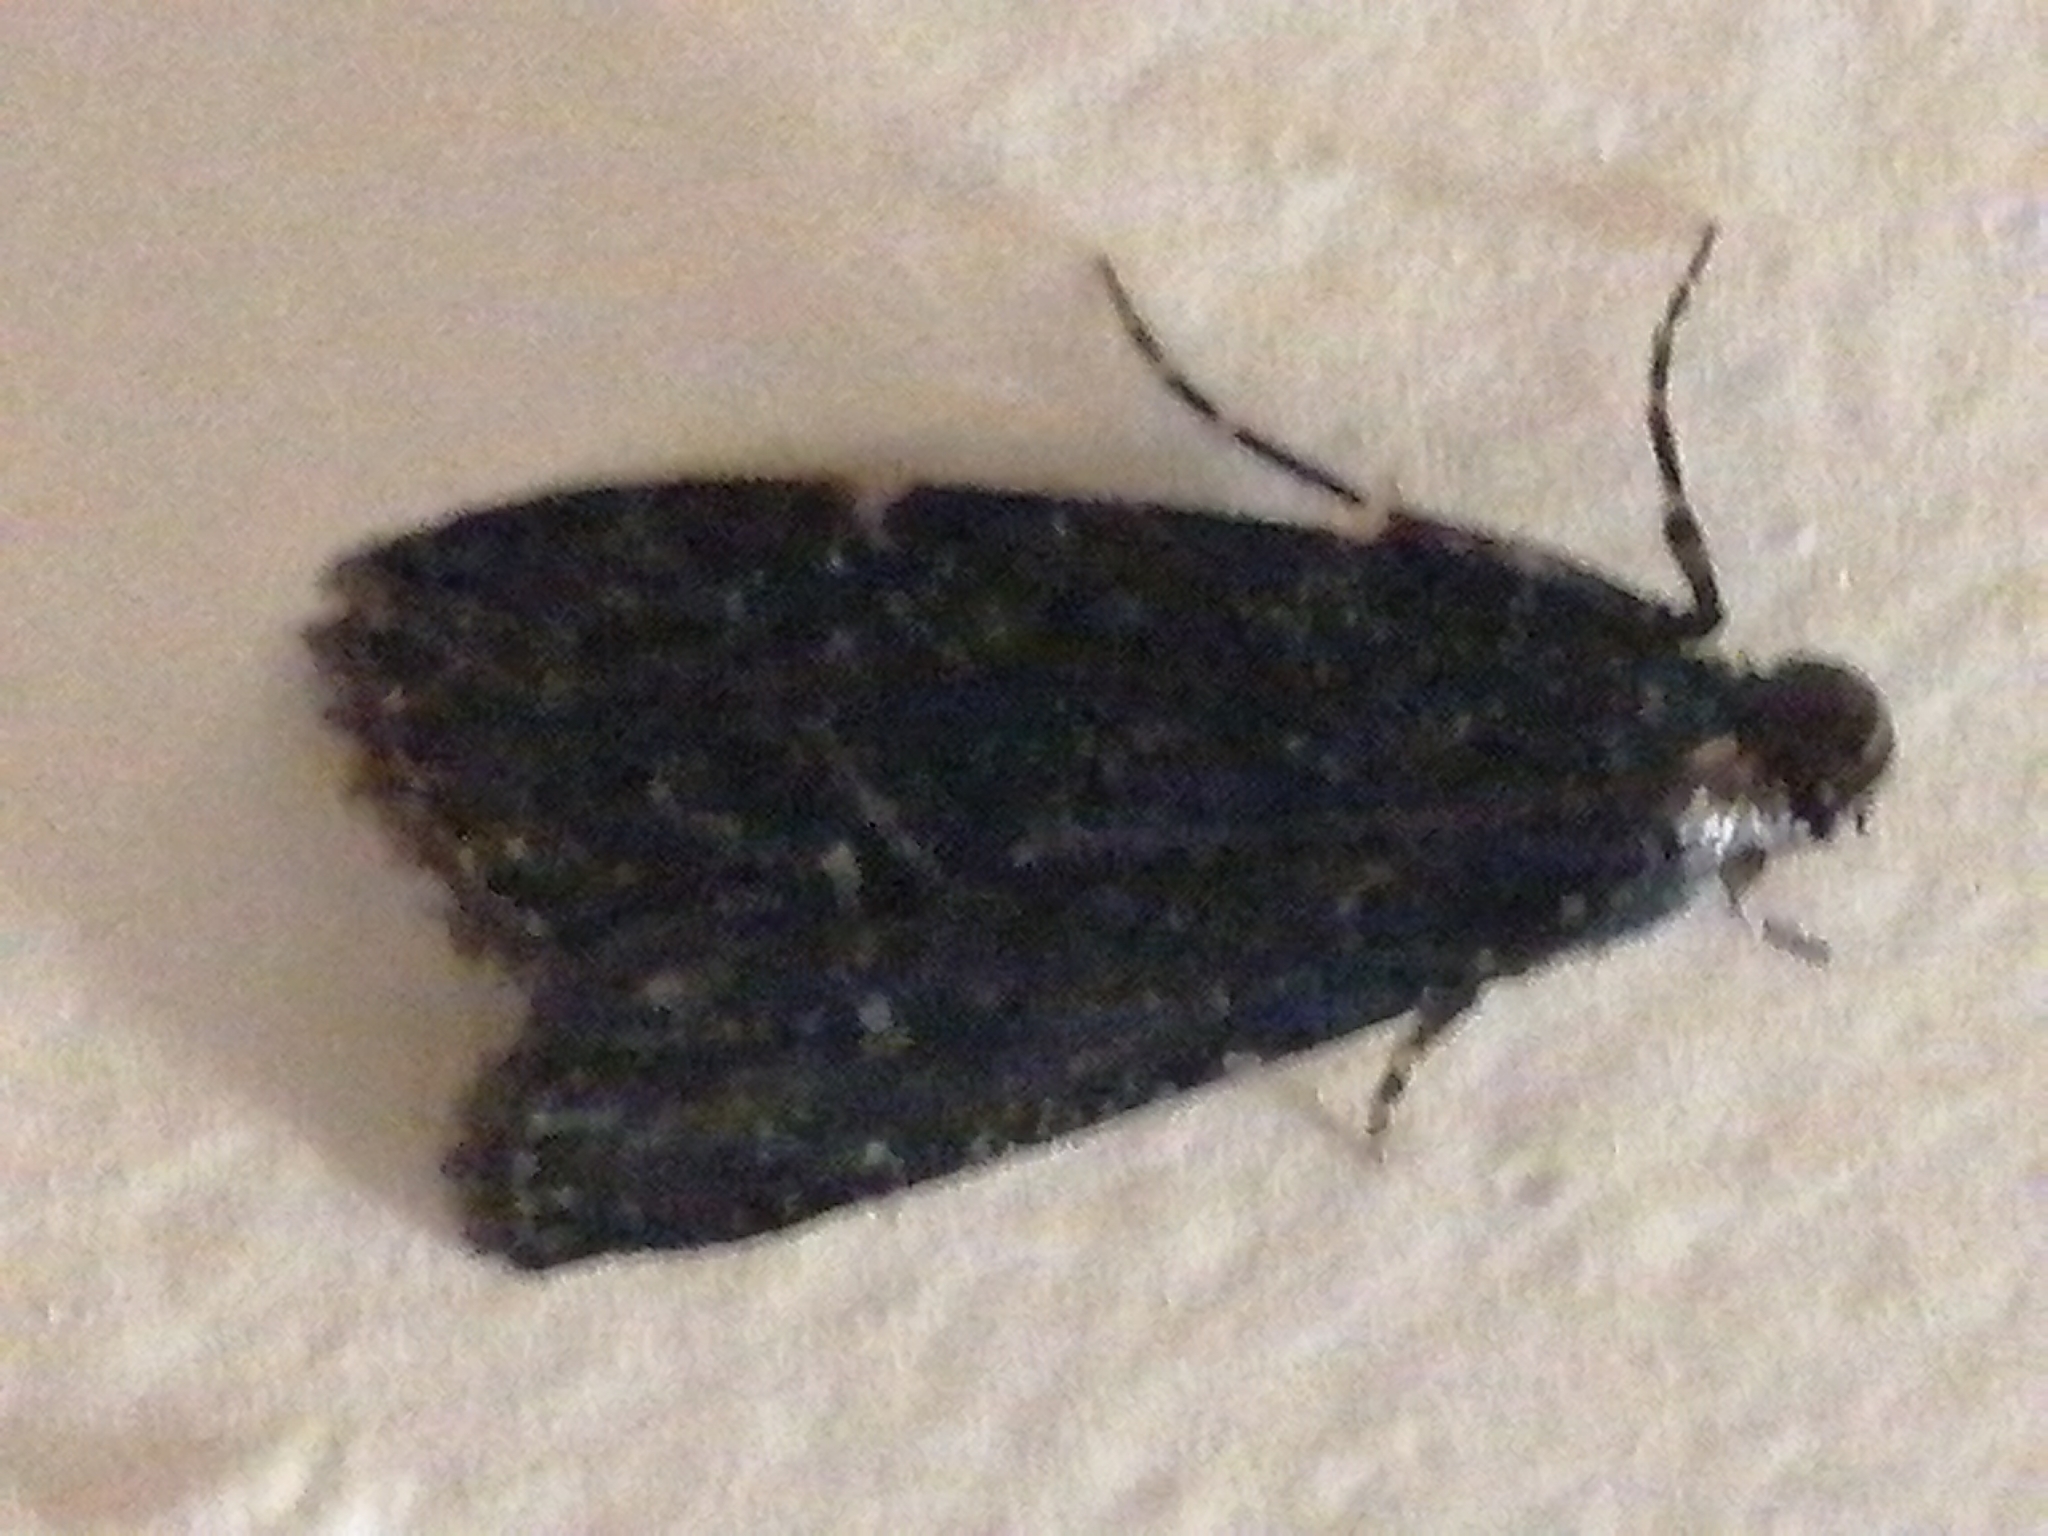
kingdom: Animalia
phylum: Arthropoda
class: Insecta
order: Lepidoptera
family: Pyralidae
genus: Stericta
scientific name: Stericta carbonalis
